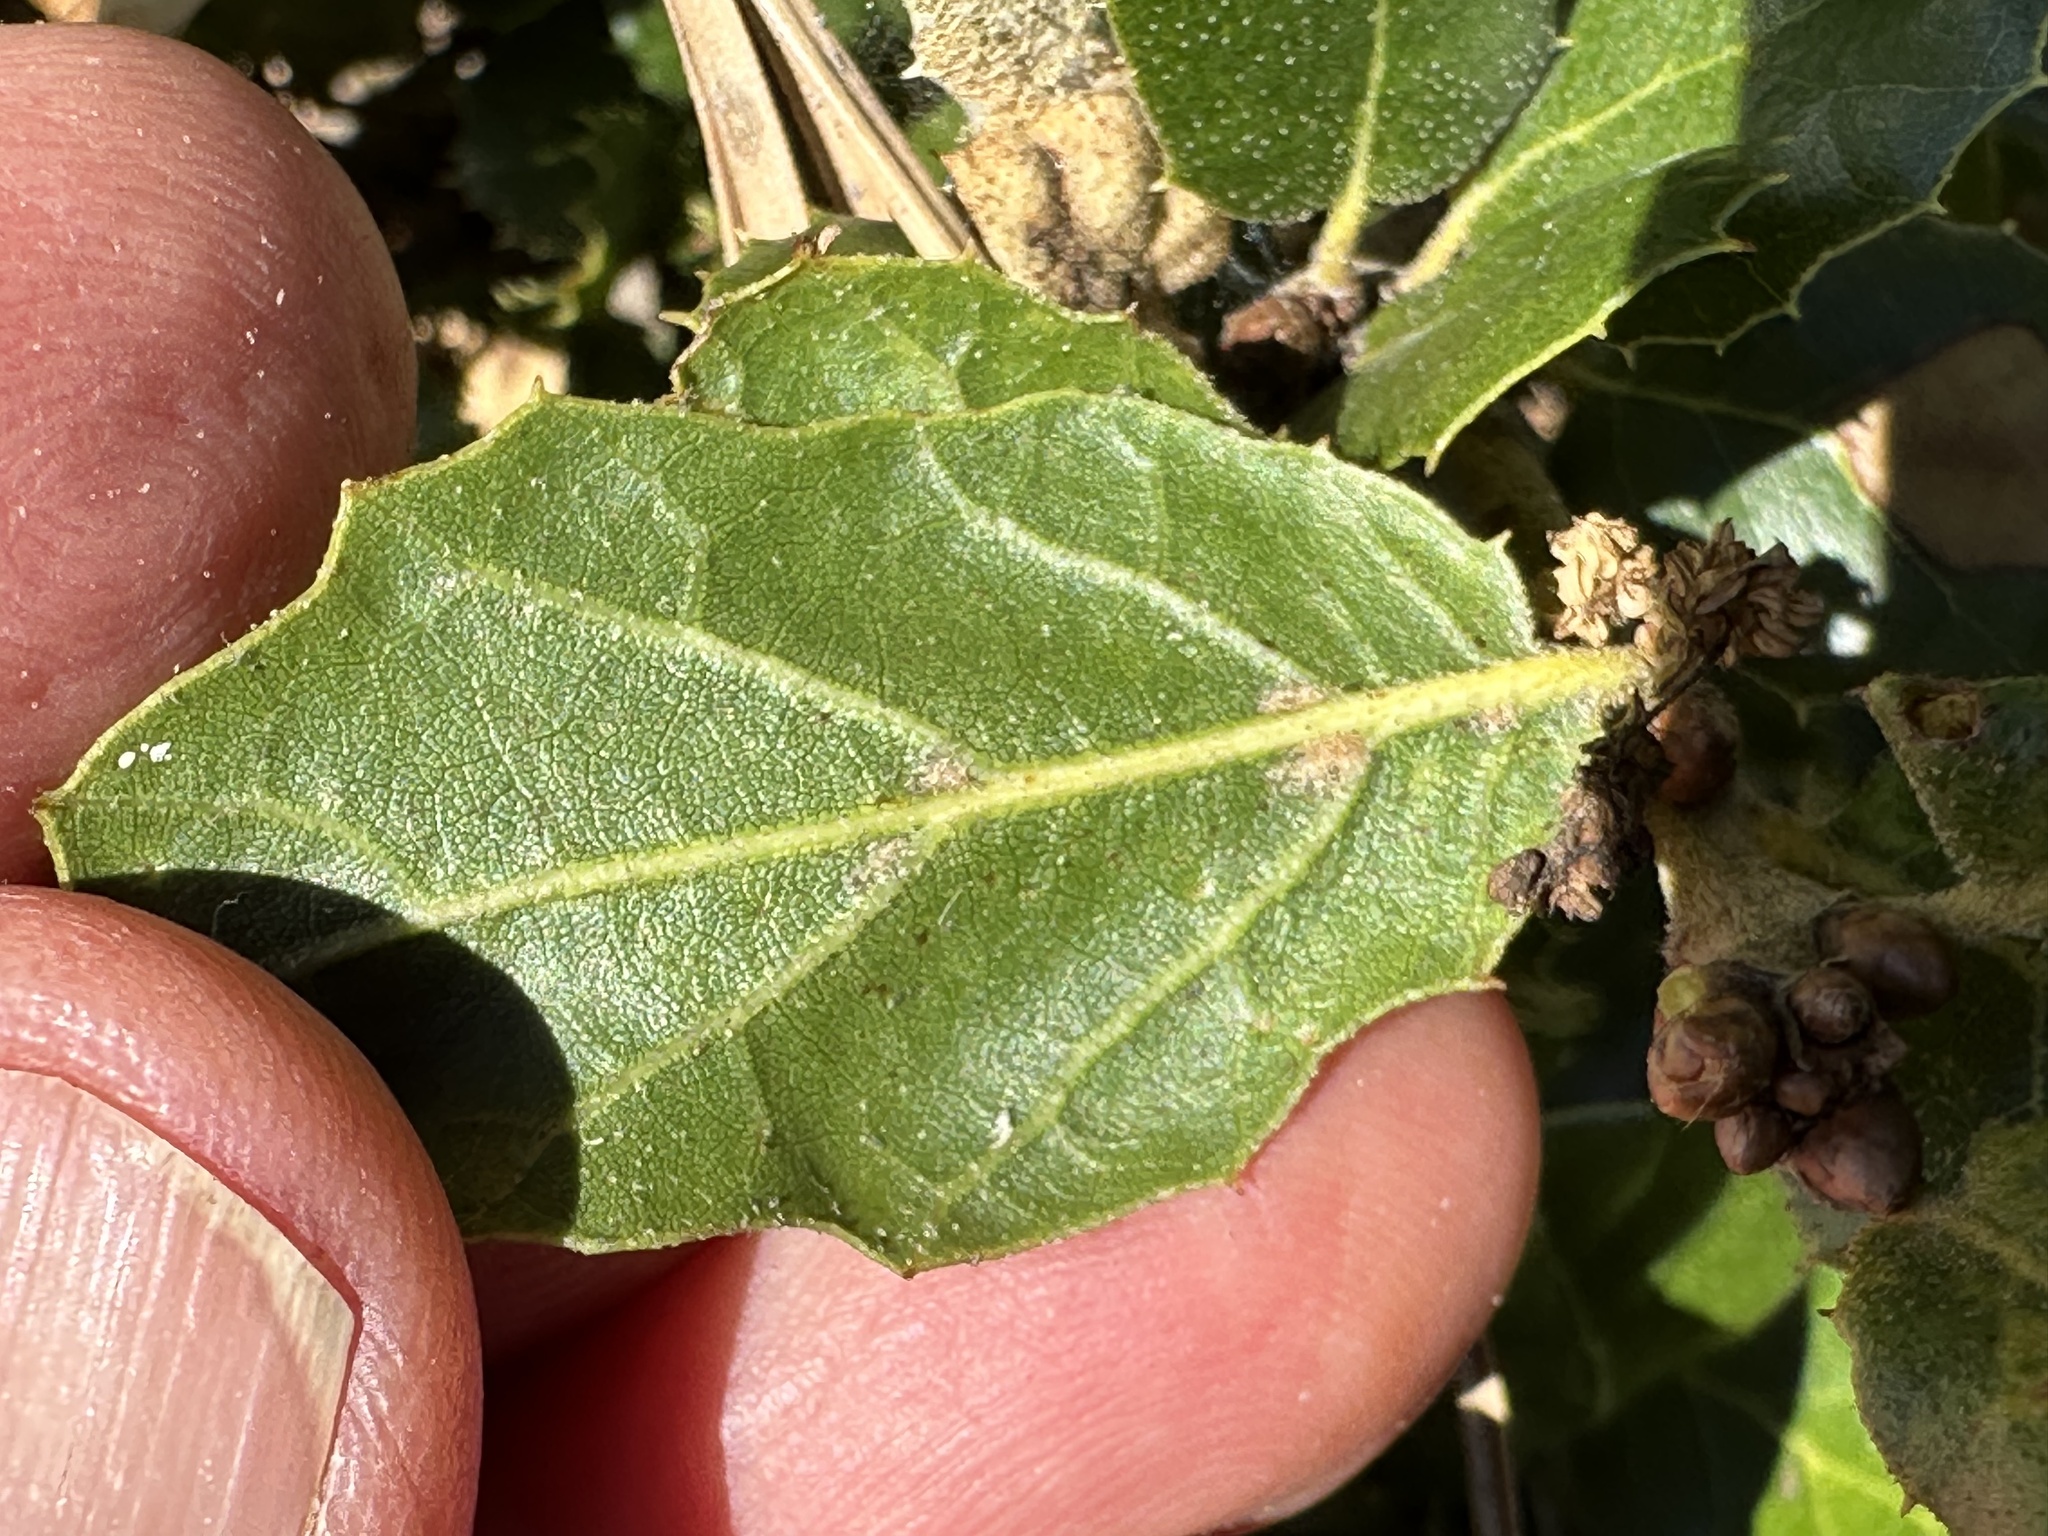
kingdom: Plantae
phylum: Tracheophyta
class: Magnoliopsida
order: Fagales
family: Fagaceae
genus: Quercus
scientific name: Quercus agrifolia
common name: California live oak
